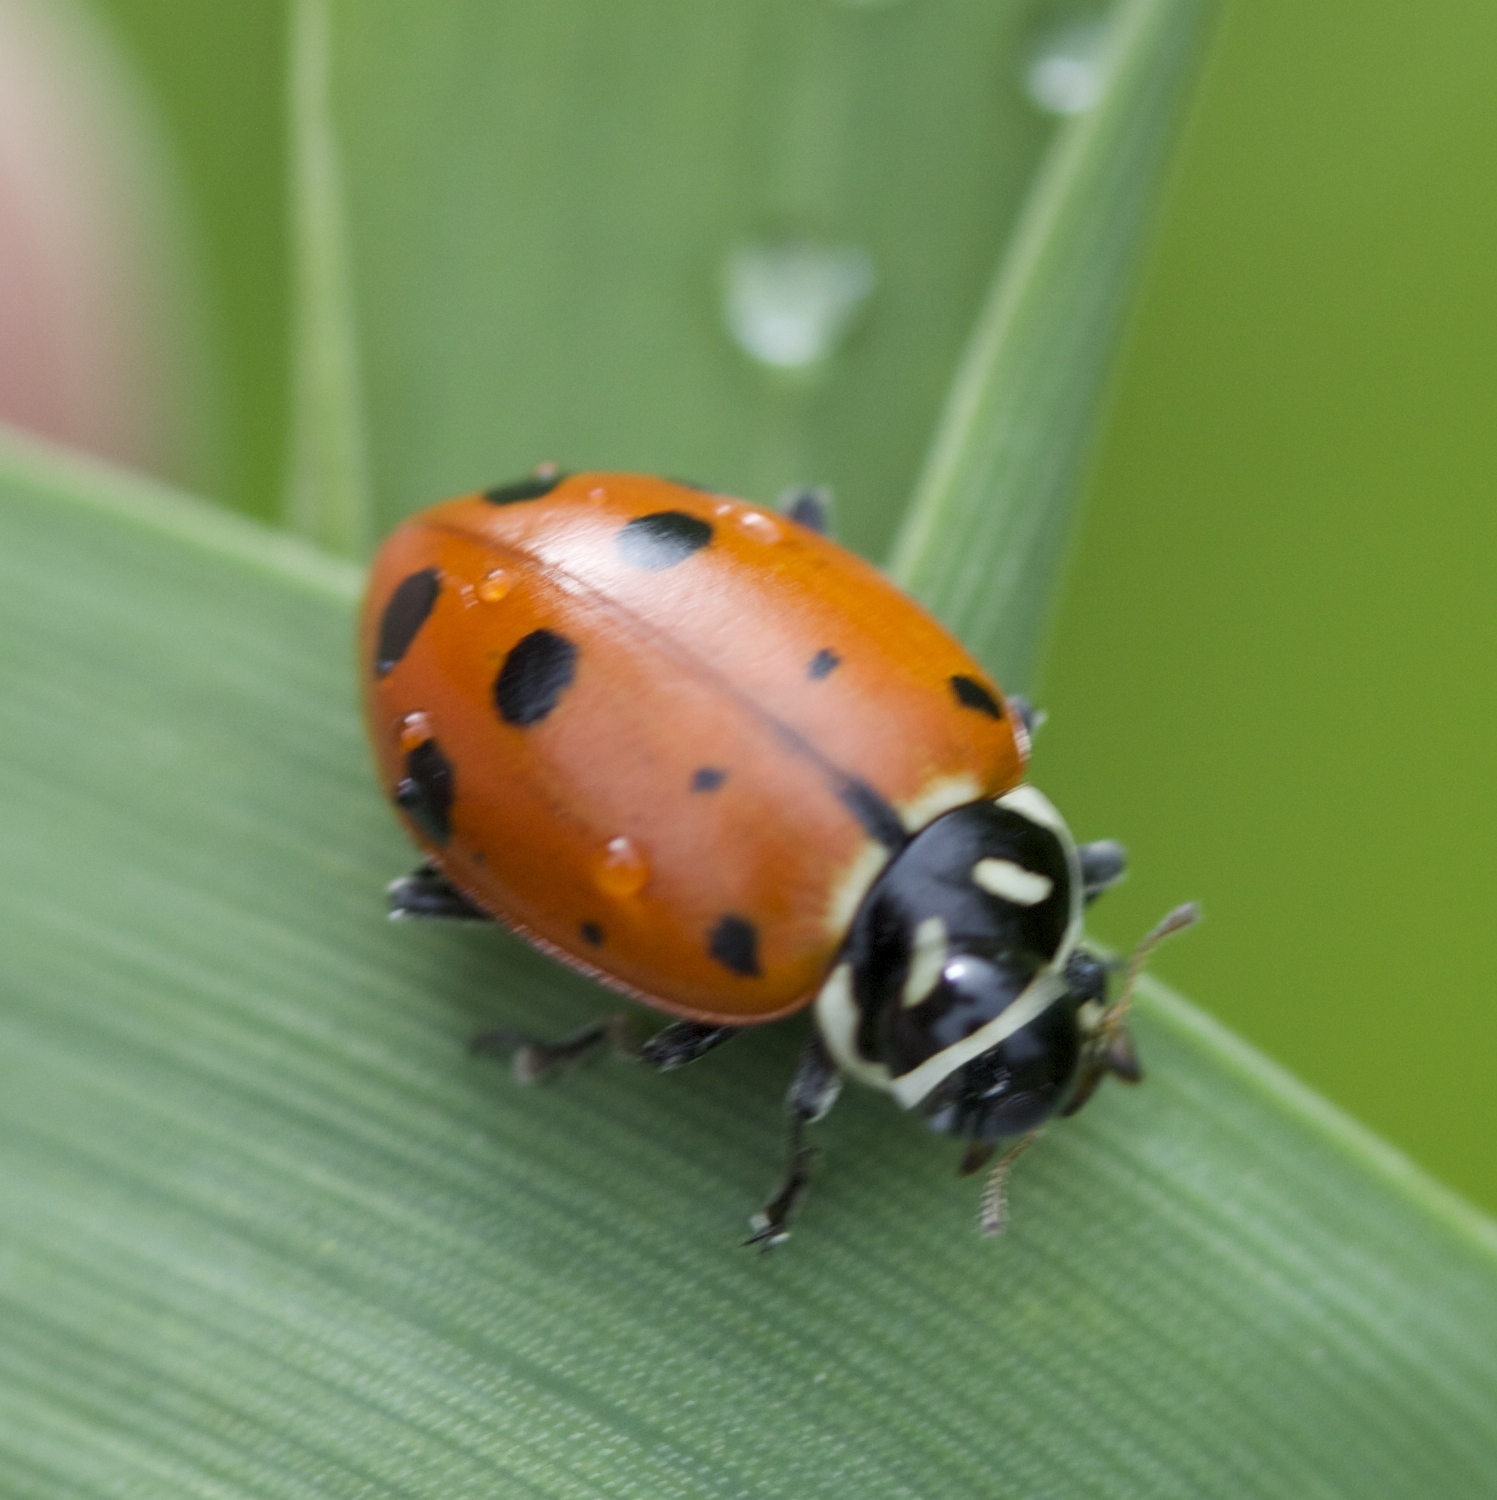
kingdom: Animalia
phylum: Arthropoda
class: Insecta
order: Coleoptera
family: Coccinellidae
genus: Hippodamia
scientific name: Hippodamia convergens
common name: Convergent lady beetle
